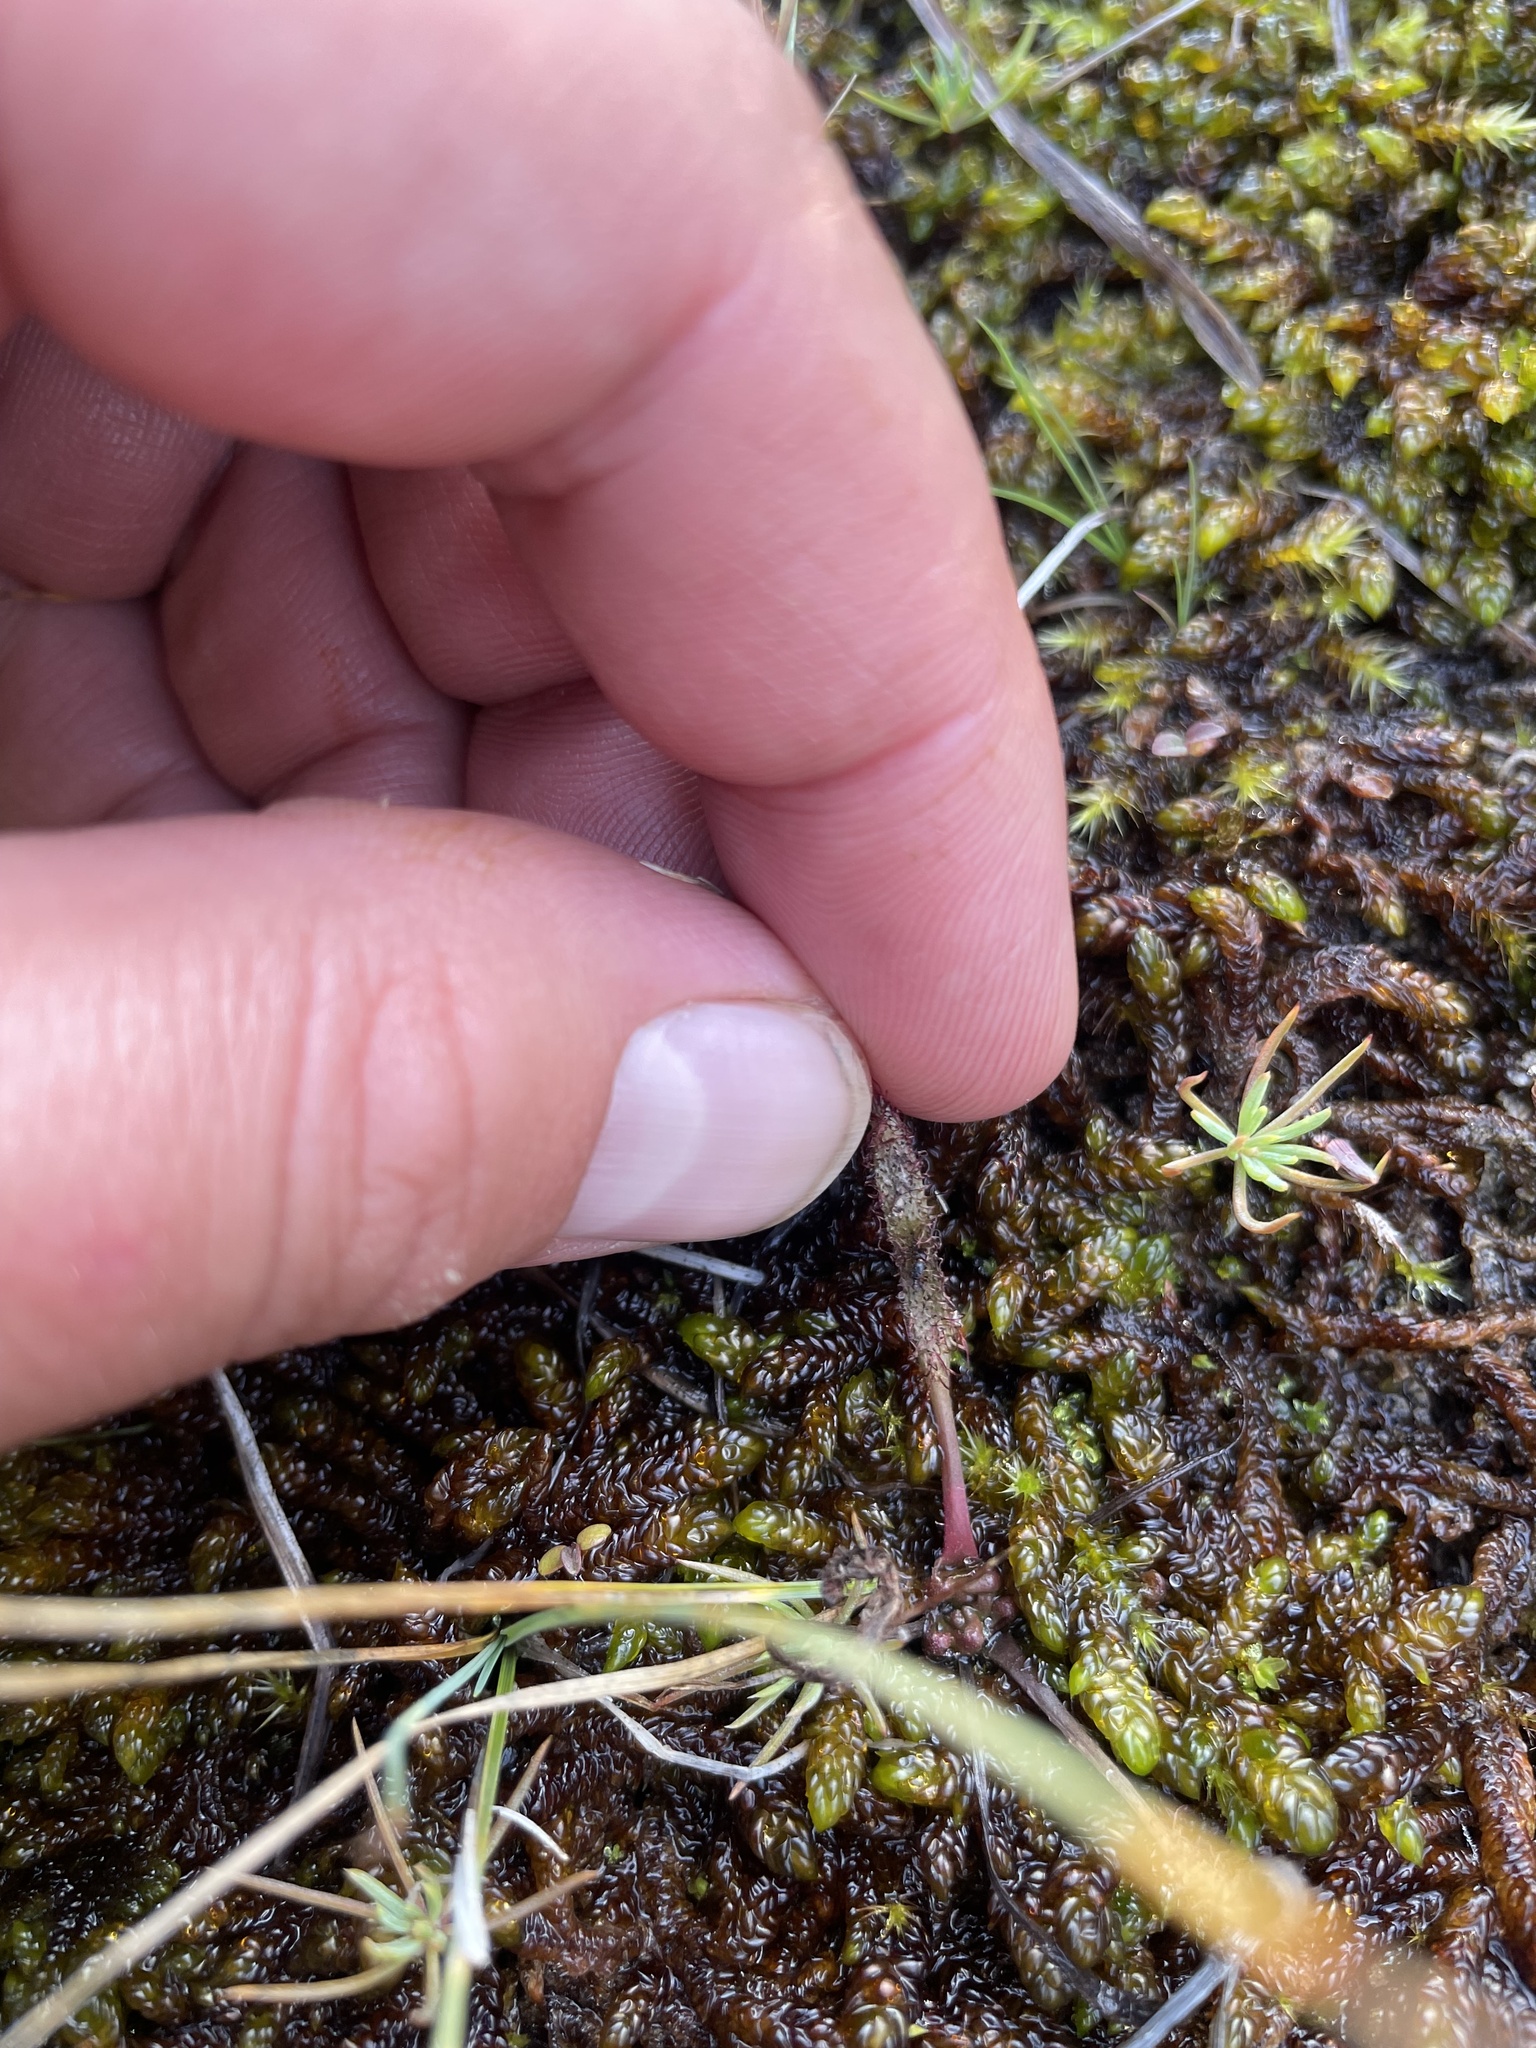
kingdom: Plantae
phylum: Tracheophyta
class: Magnoliopsida
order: Caryophyllales
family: Droseraceae
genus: Drosera
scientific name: Drosera linearis
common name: Linear-leaved sundew
